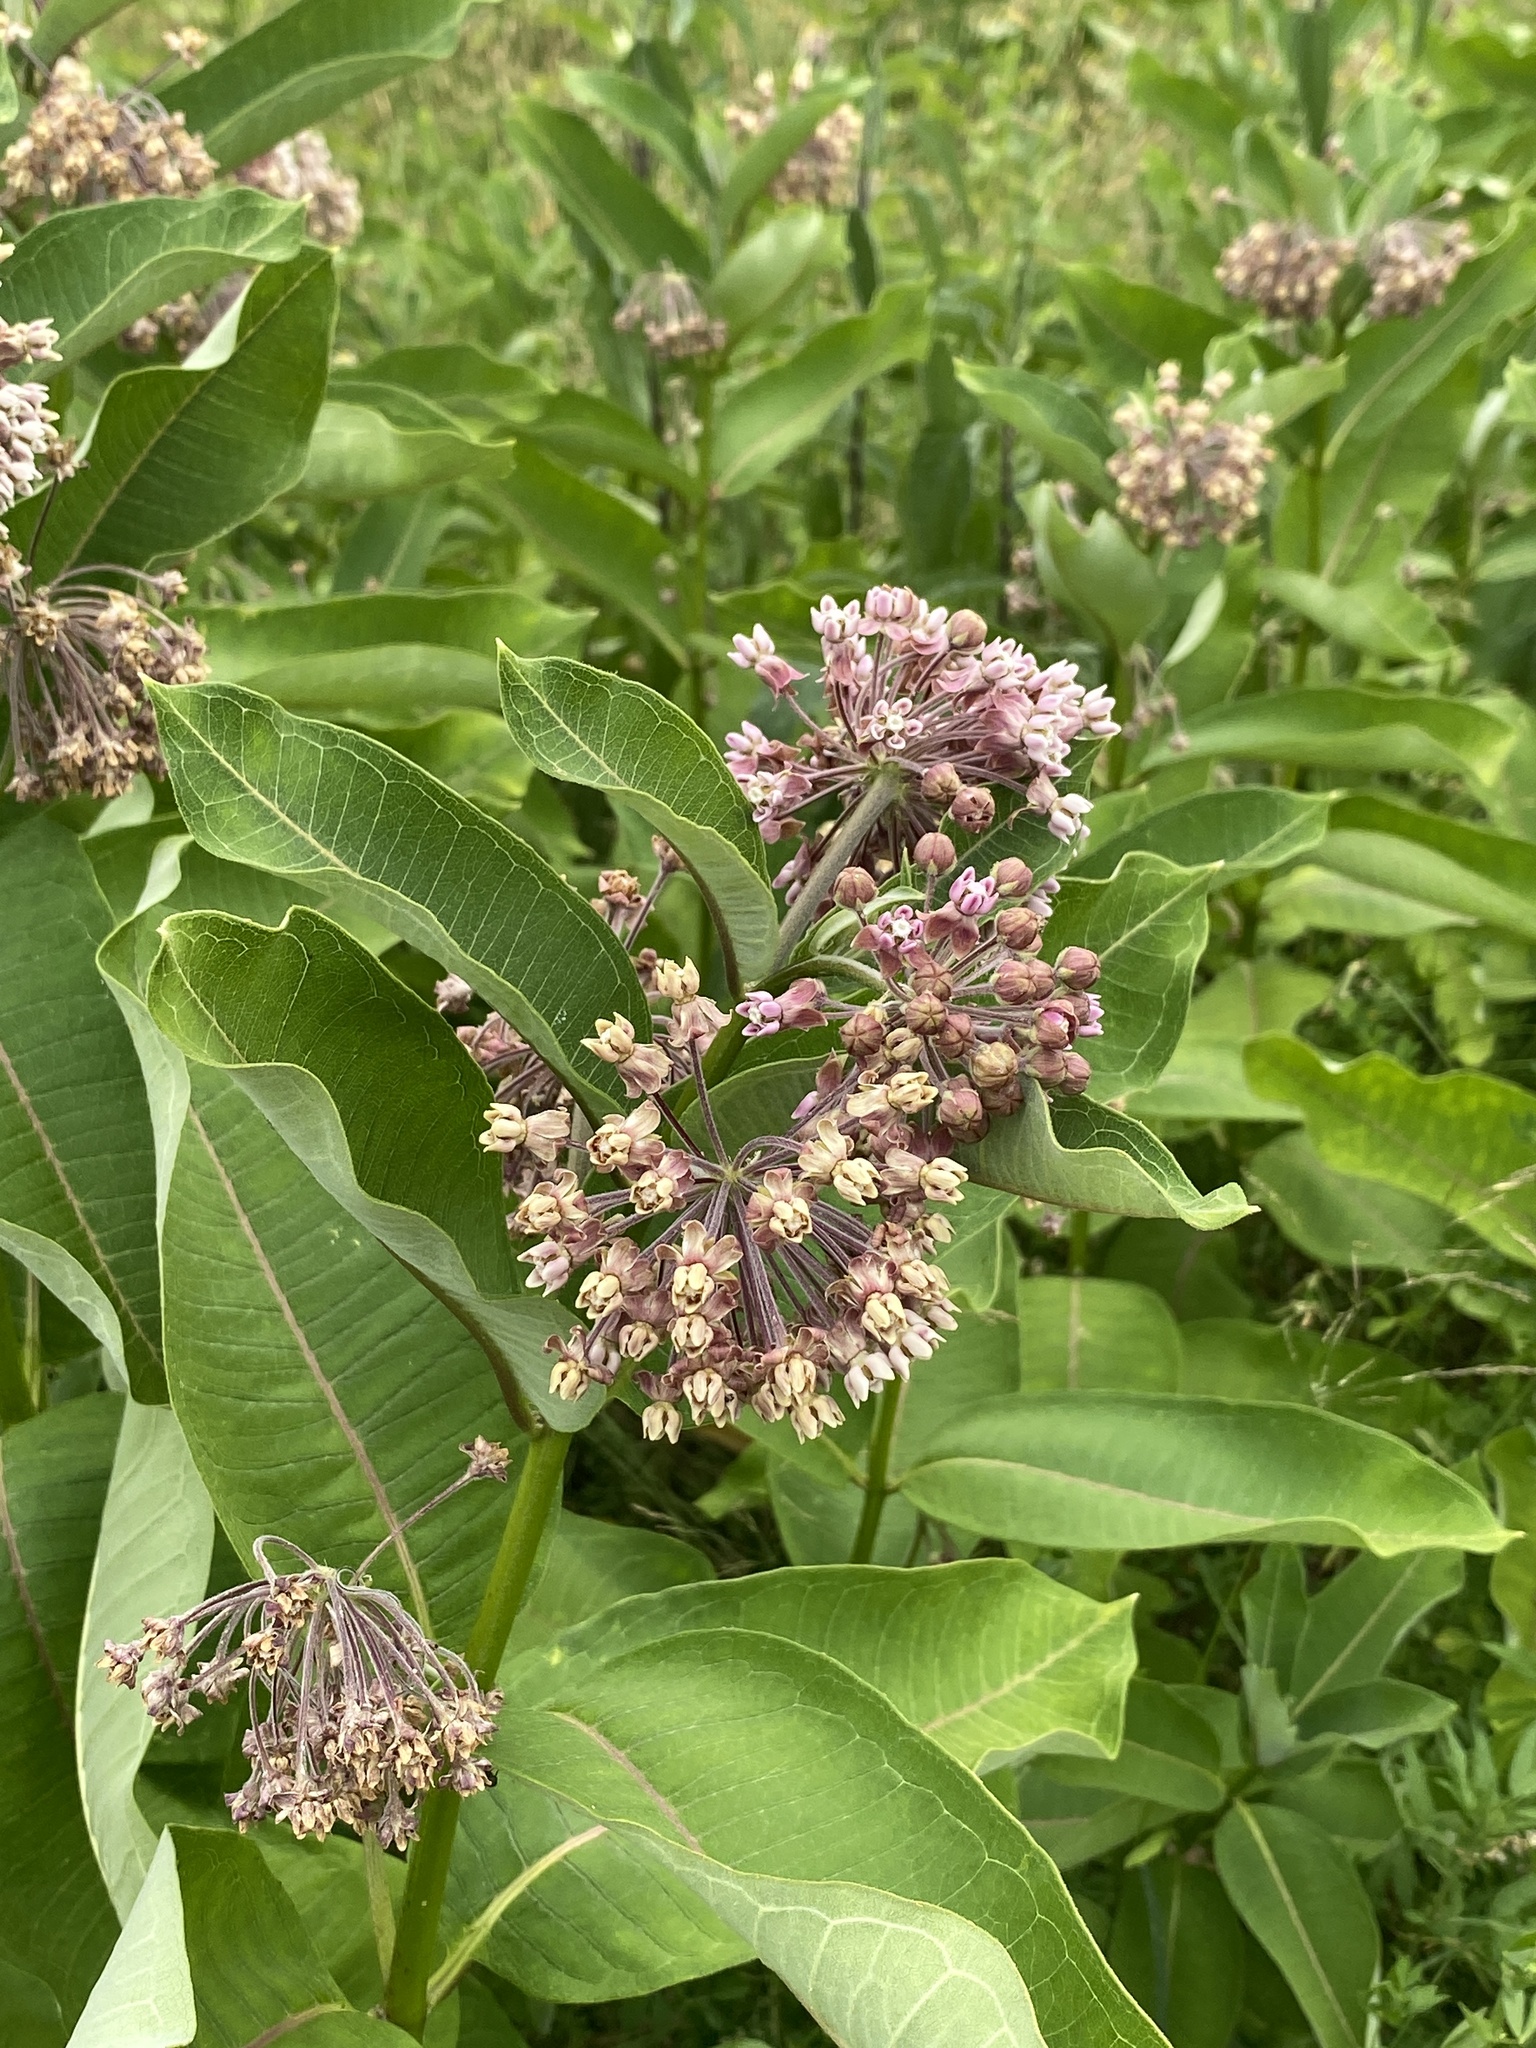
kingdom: Plantae
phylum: Tracheophyta
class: Magnoliopsida
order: Gentianales
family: Apocynaceae
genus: Asclepias
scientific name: Asclepias syriaca
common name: Common milkweed
